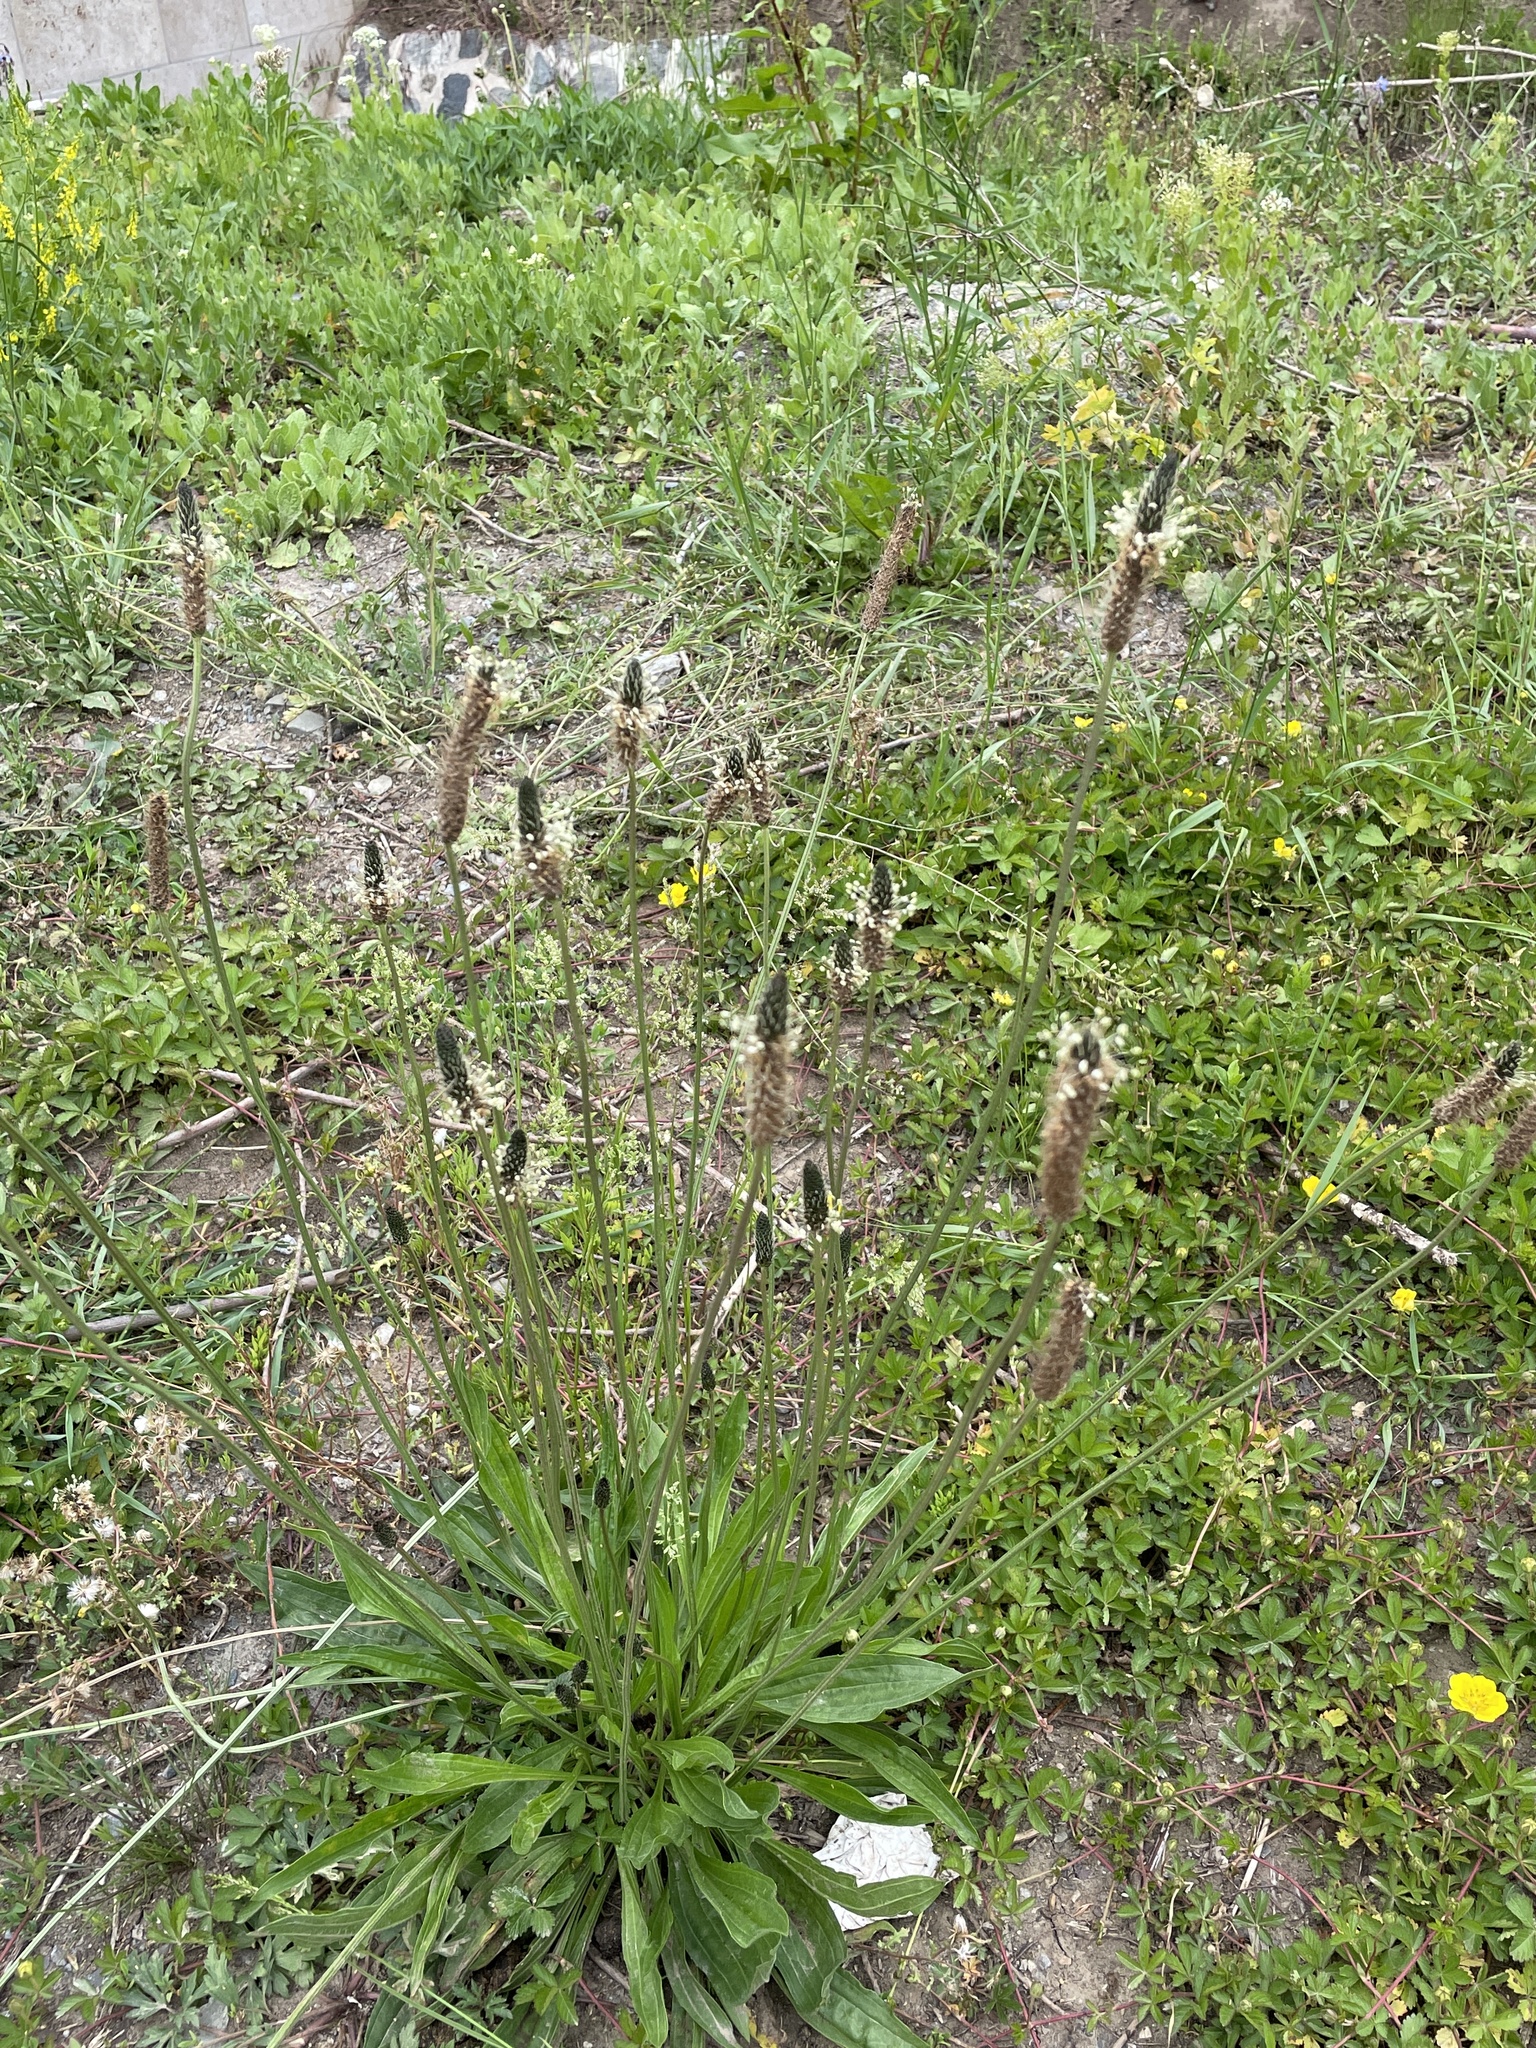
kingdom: Plantae
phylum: Tracheophyta
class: Magnoliopsida
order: Lamiales
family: Plantaginaceae
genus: Plantago
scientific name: Plantago lanceolata
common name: Ribwort plantain
